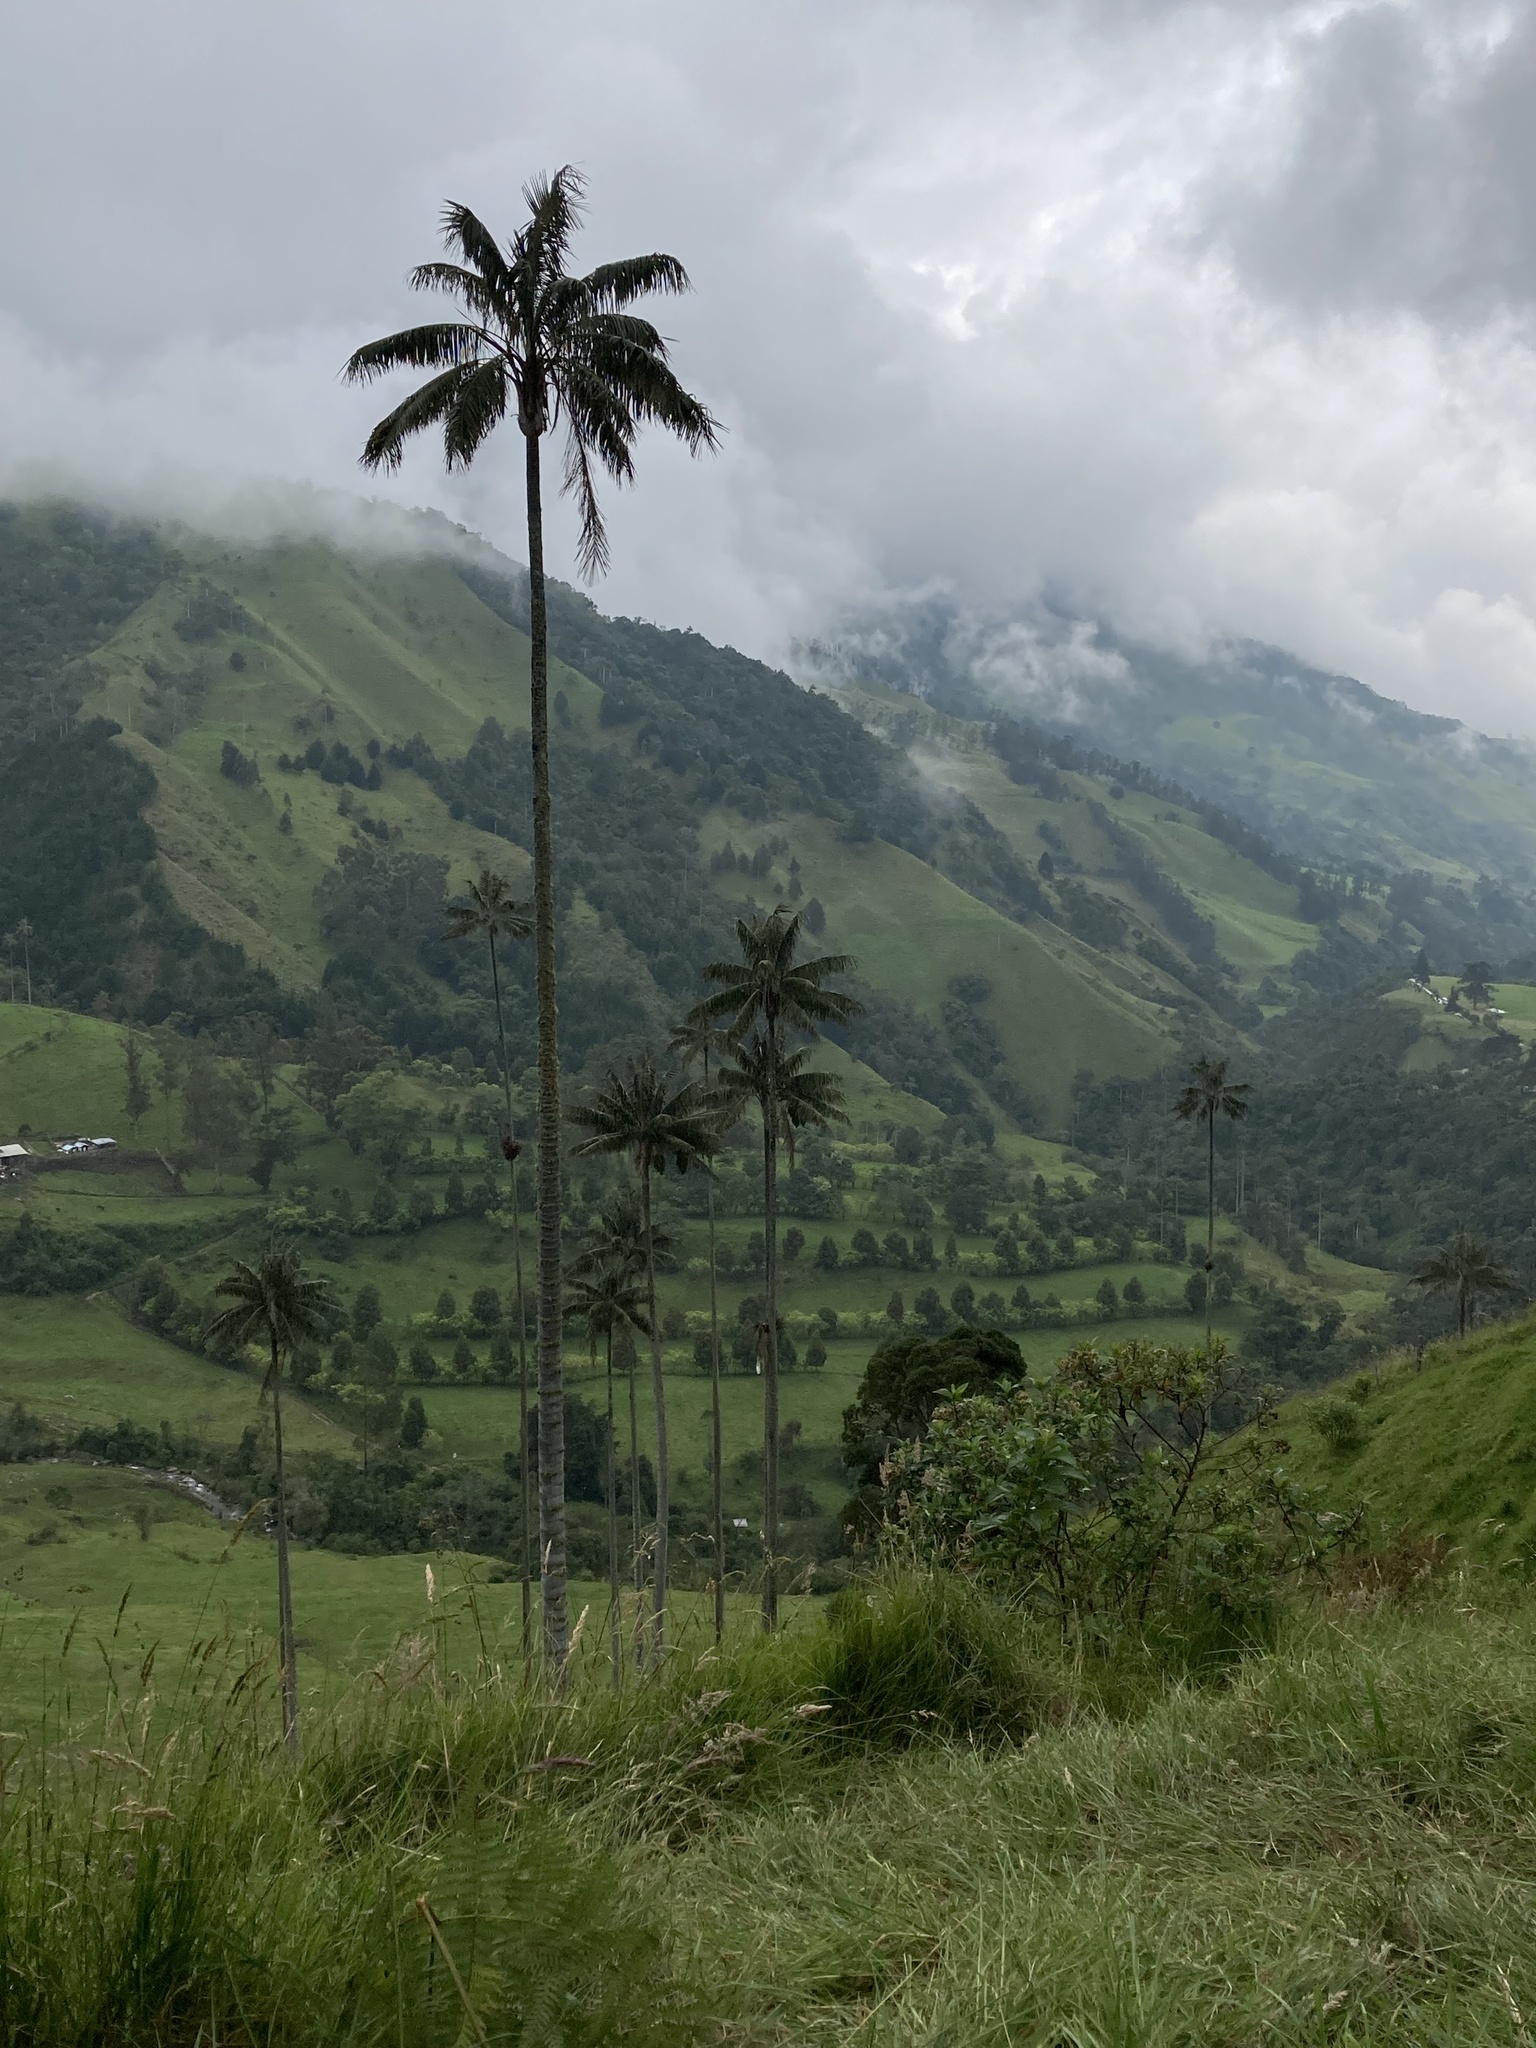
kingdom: Plantae
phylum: Tracheophyta
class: Liliopsida
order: Arecales
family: Arecaceae
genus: Ceroxylon
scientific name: Ceroxylon quindiuense
